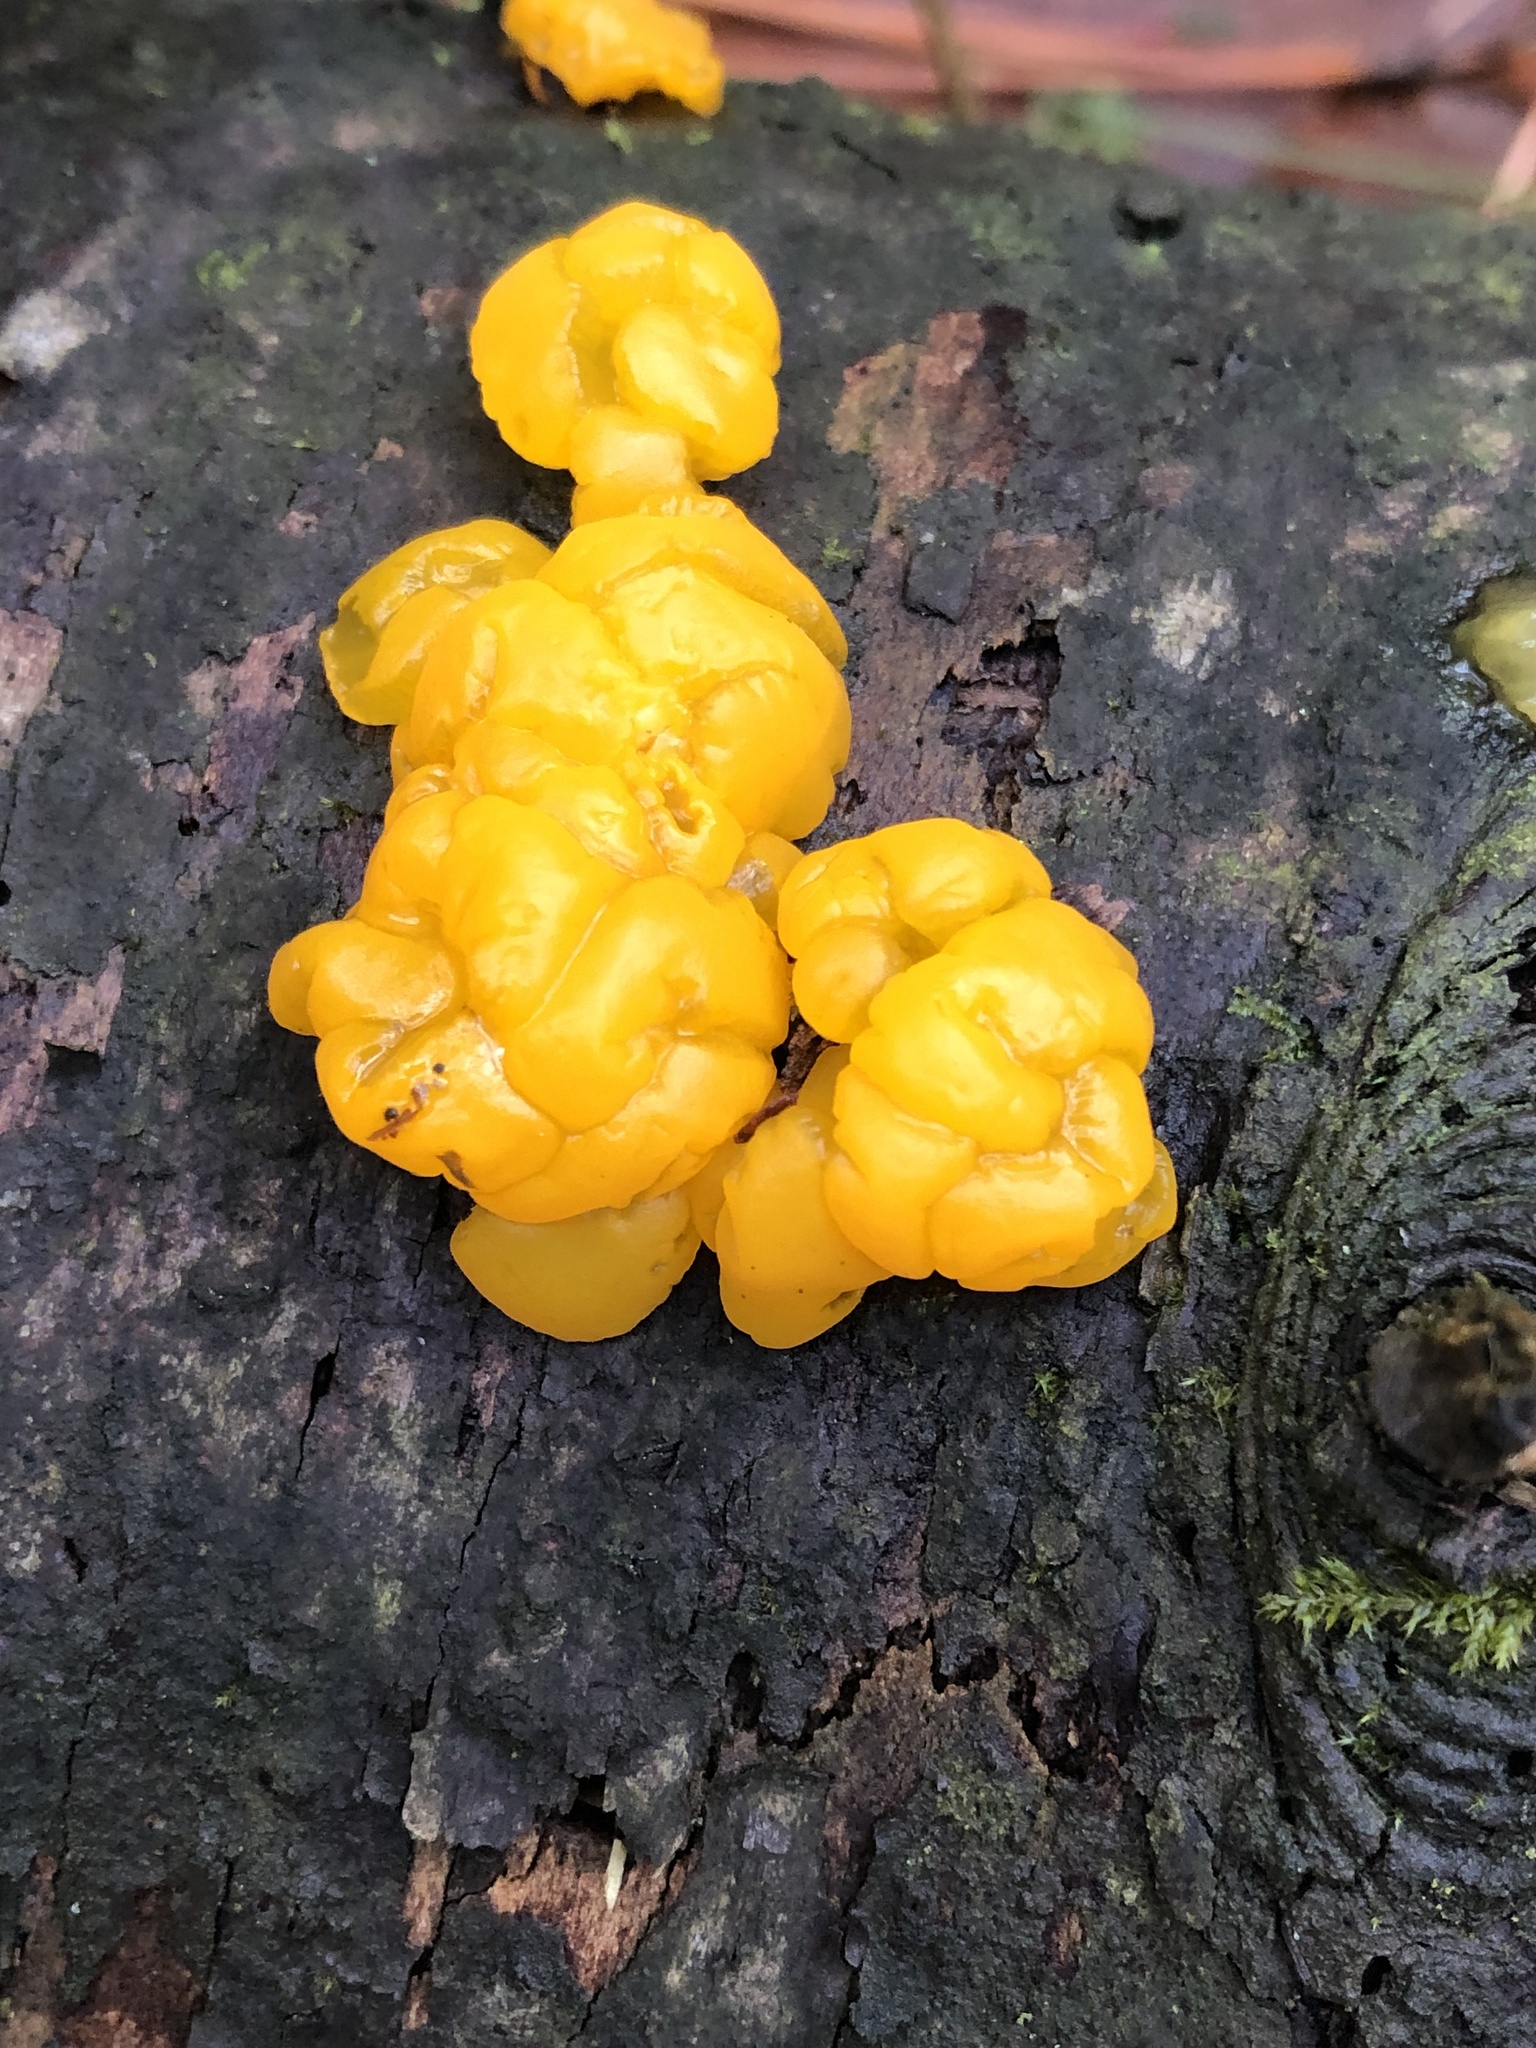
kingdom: Fungi
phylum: Basidiomycota
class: Dacrymycetes
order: Dacrymycetales
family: Dacrymycetaceae
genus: Dacrymyces
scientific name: Dacrymyces chrysospermus
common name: Orange jelly spot
